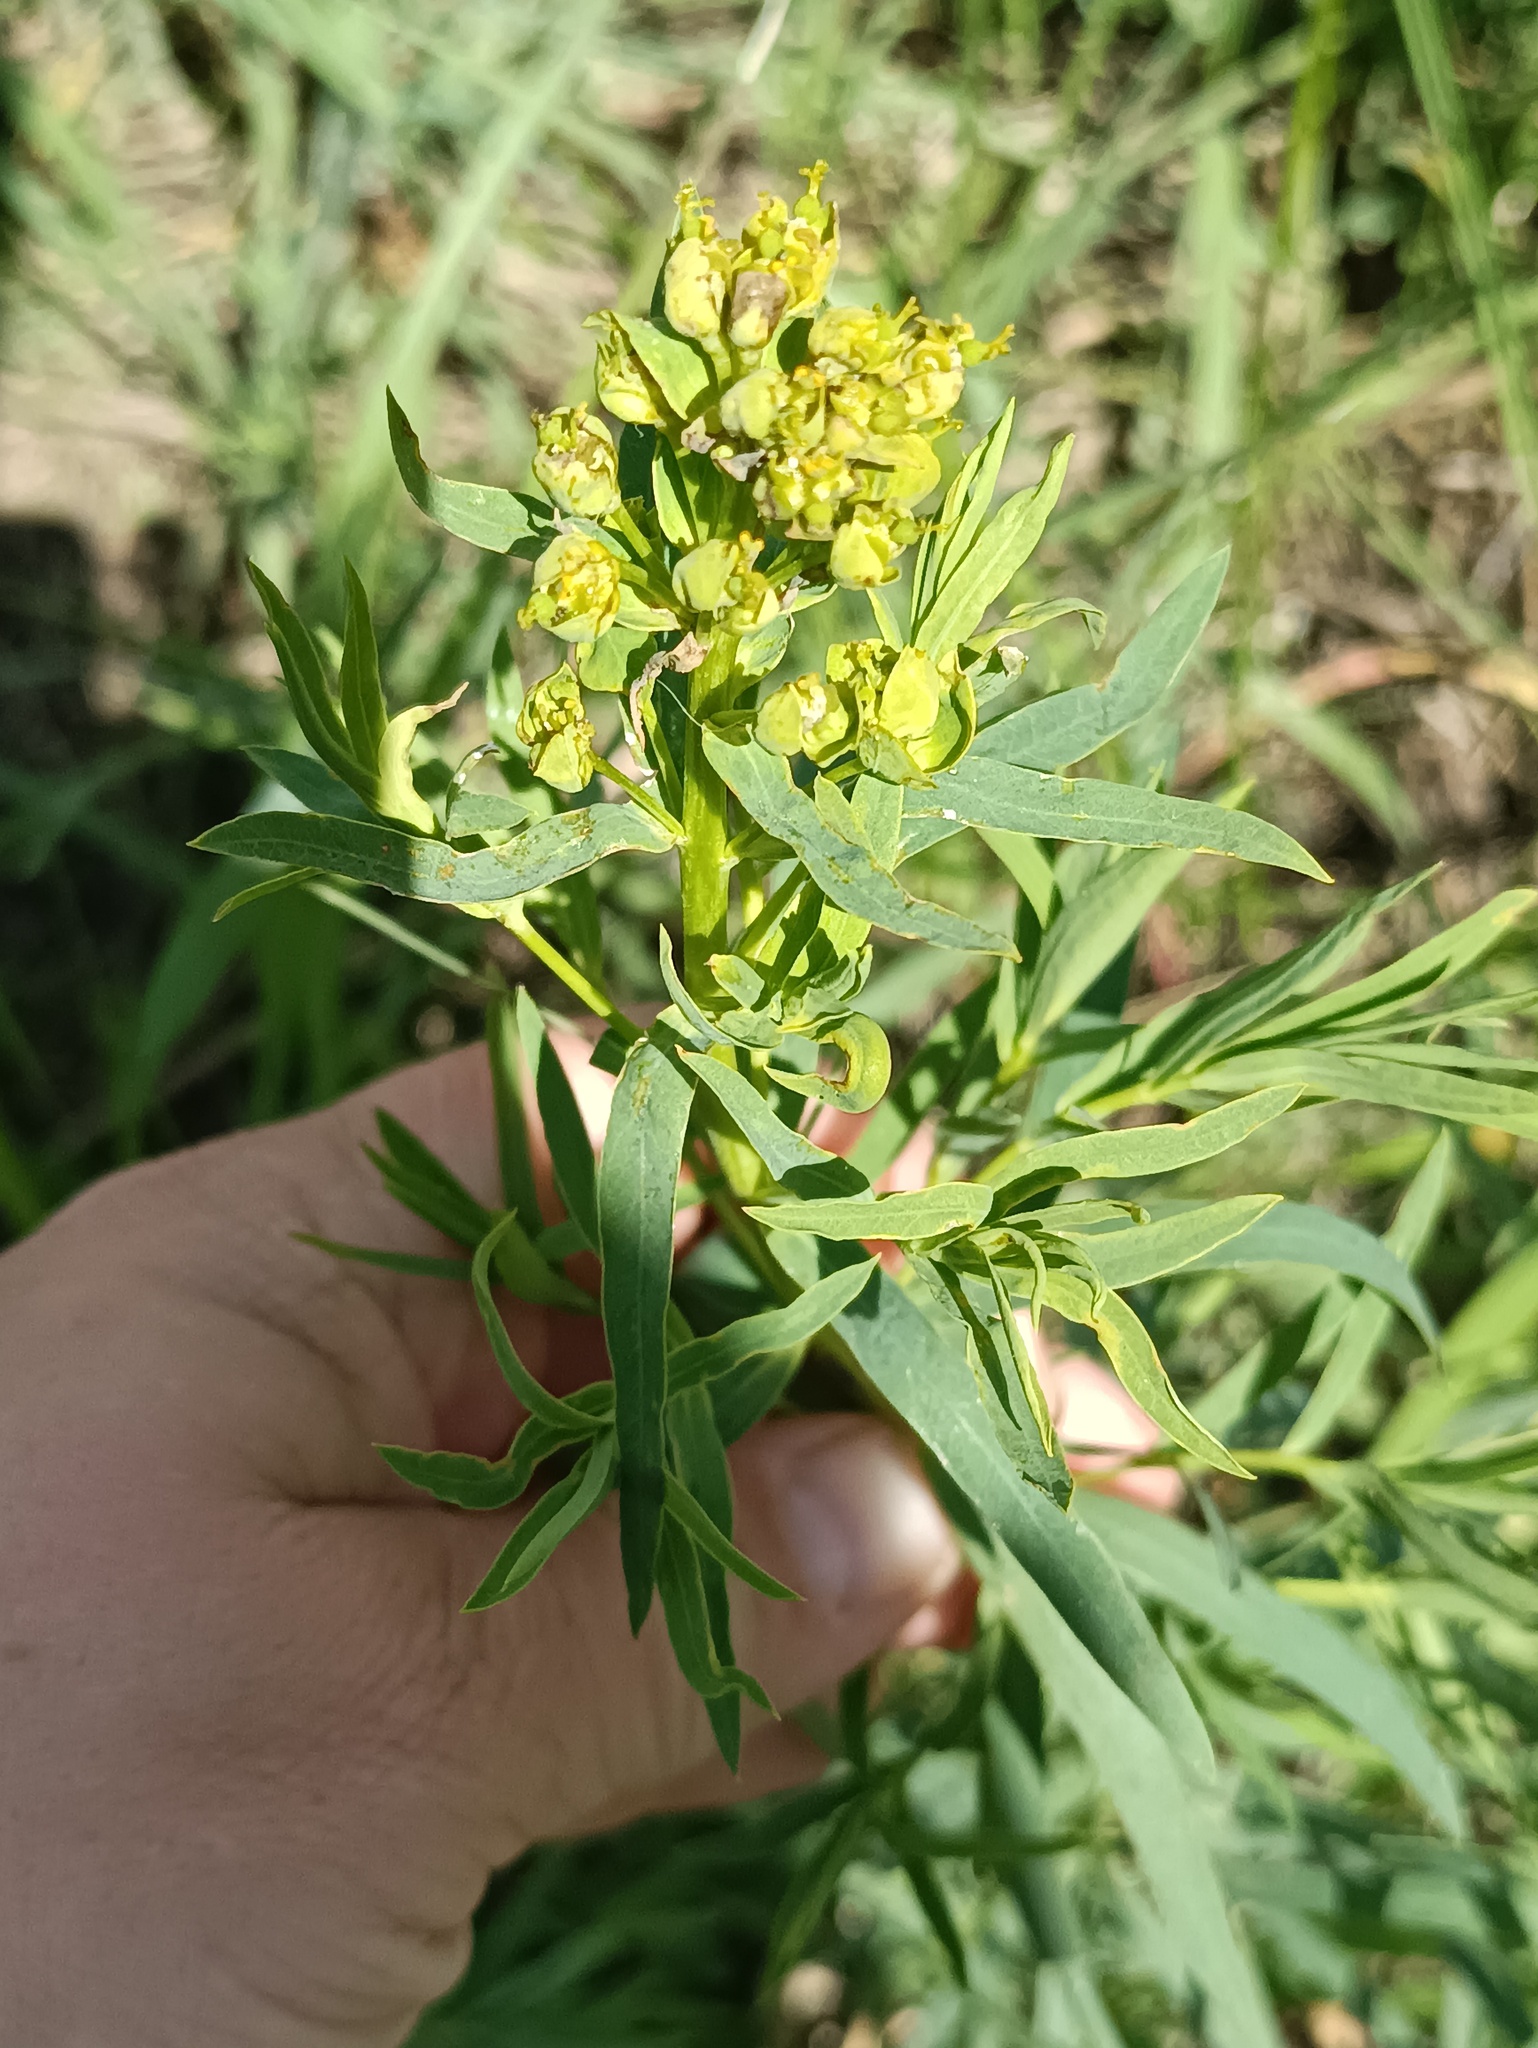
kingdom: Plantae
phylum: Tracheophyta
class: Magnoliopsida
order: Malpighiales
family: Euphorbiaceae
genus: Euphorbia
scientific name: Euphorbia virgata
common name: Leafy spurge
